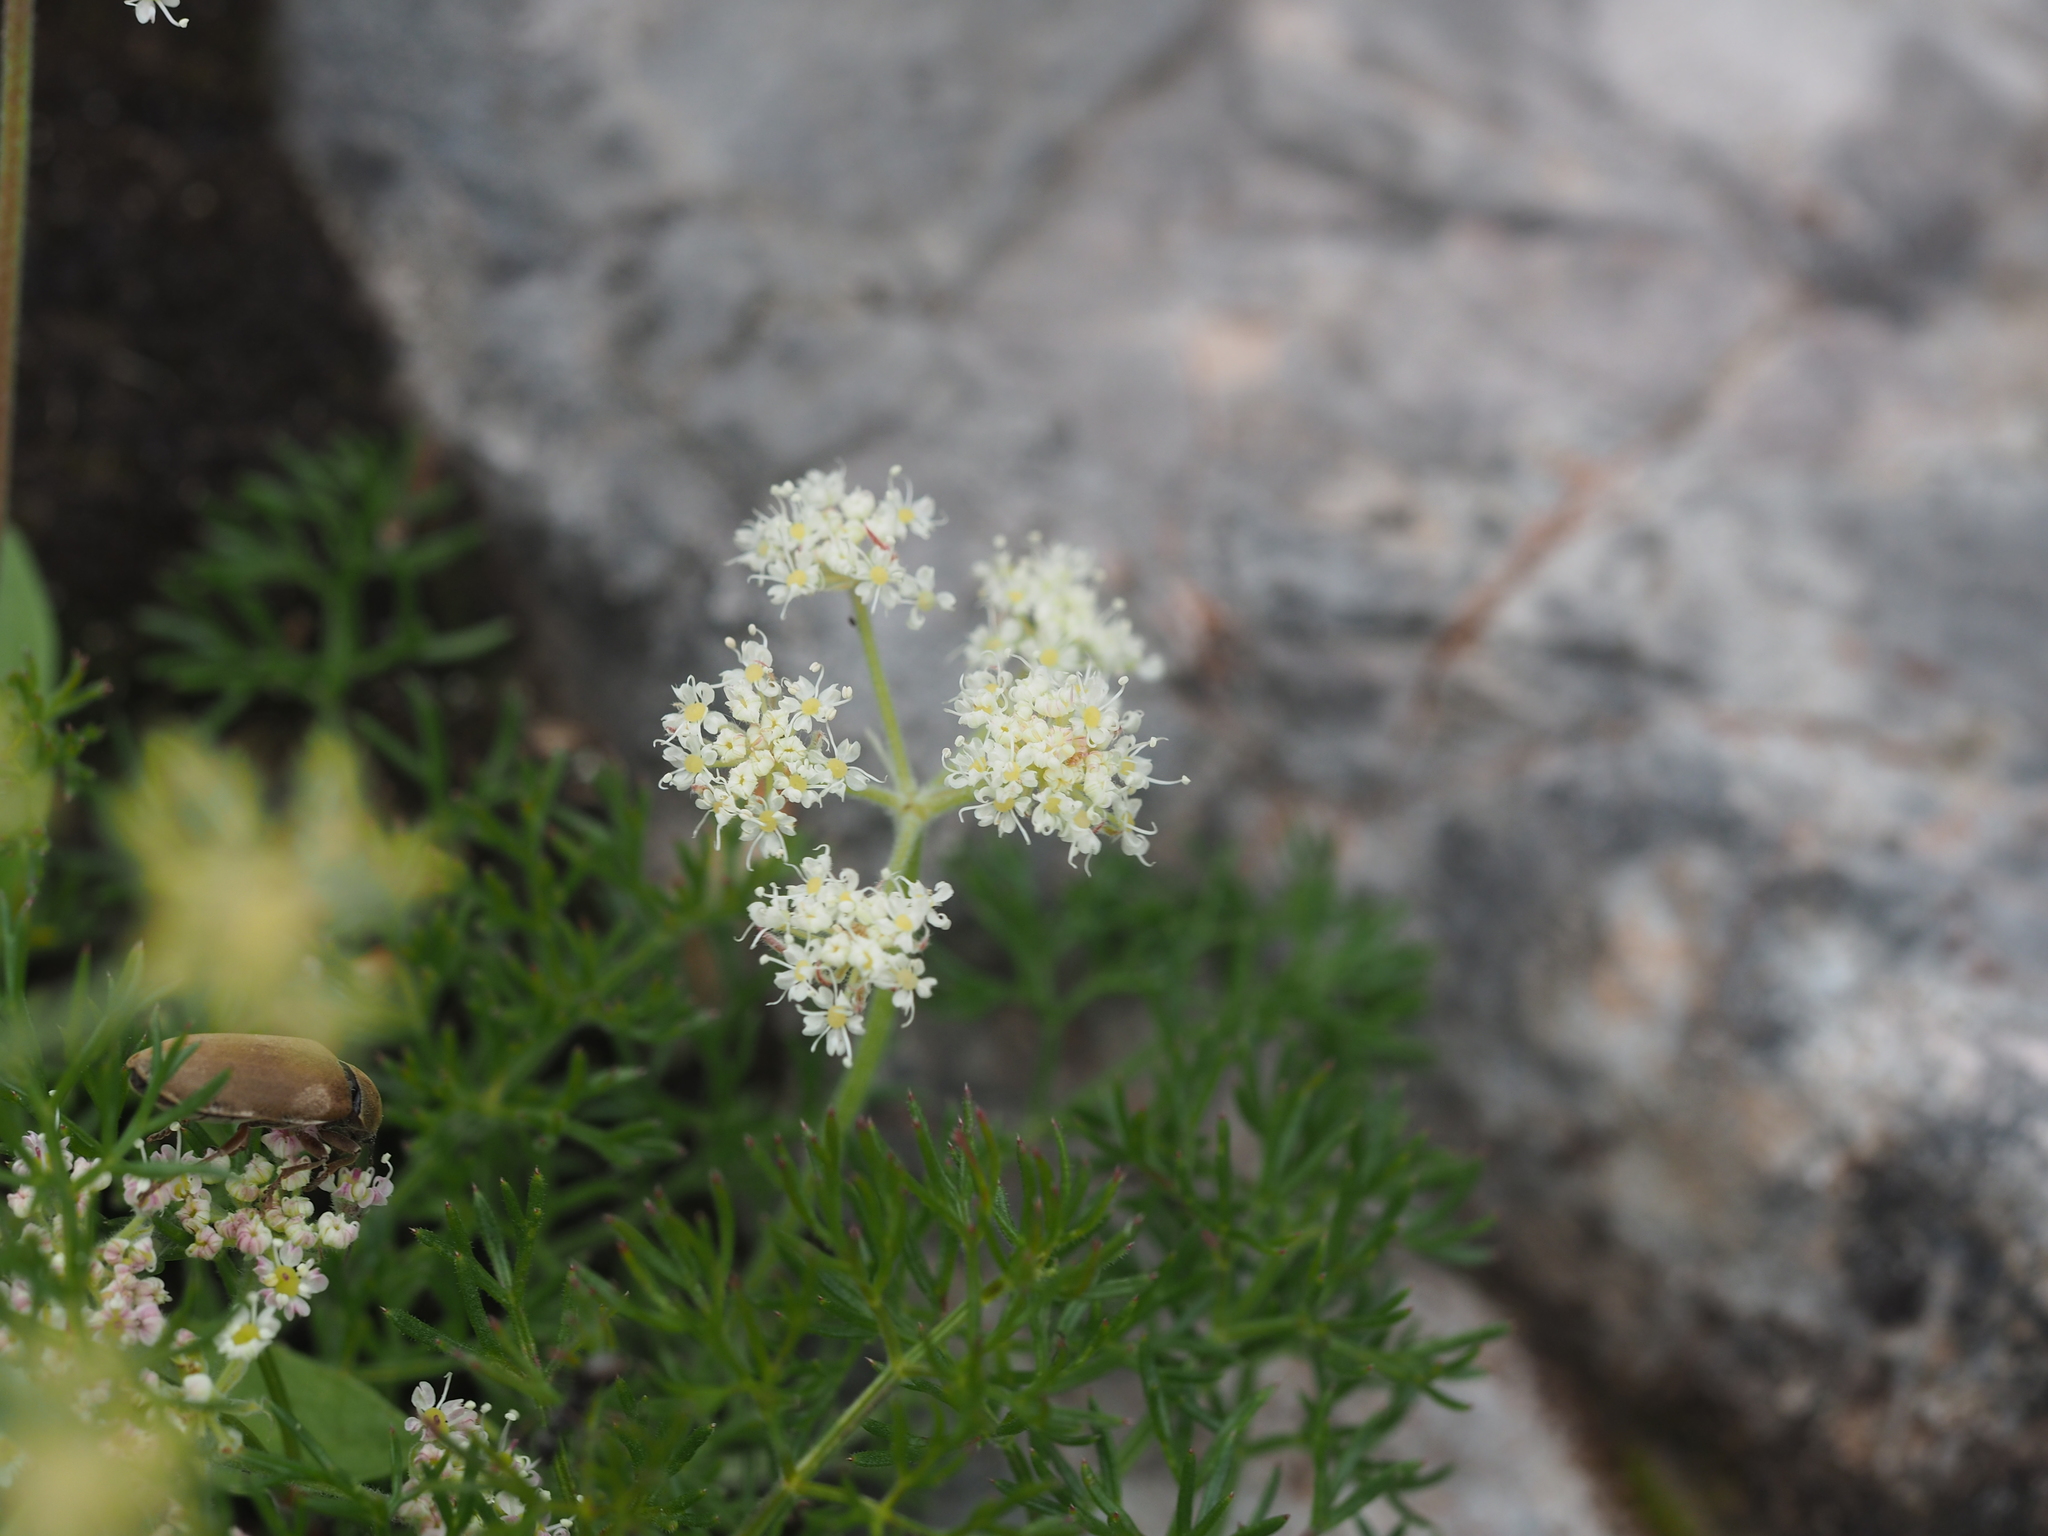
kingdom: Plantae
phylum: Tracheophyta
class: Magnoliopsida
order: Apiales
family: Apiaceae
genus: Athamanta
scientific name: Athamanta cretensis
